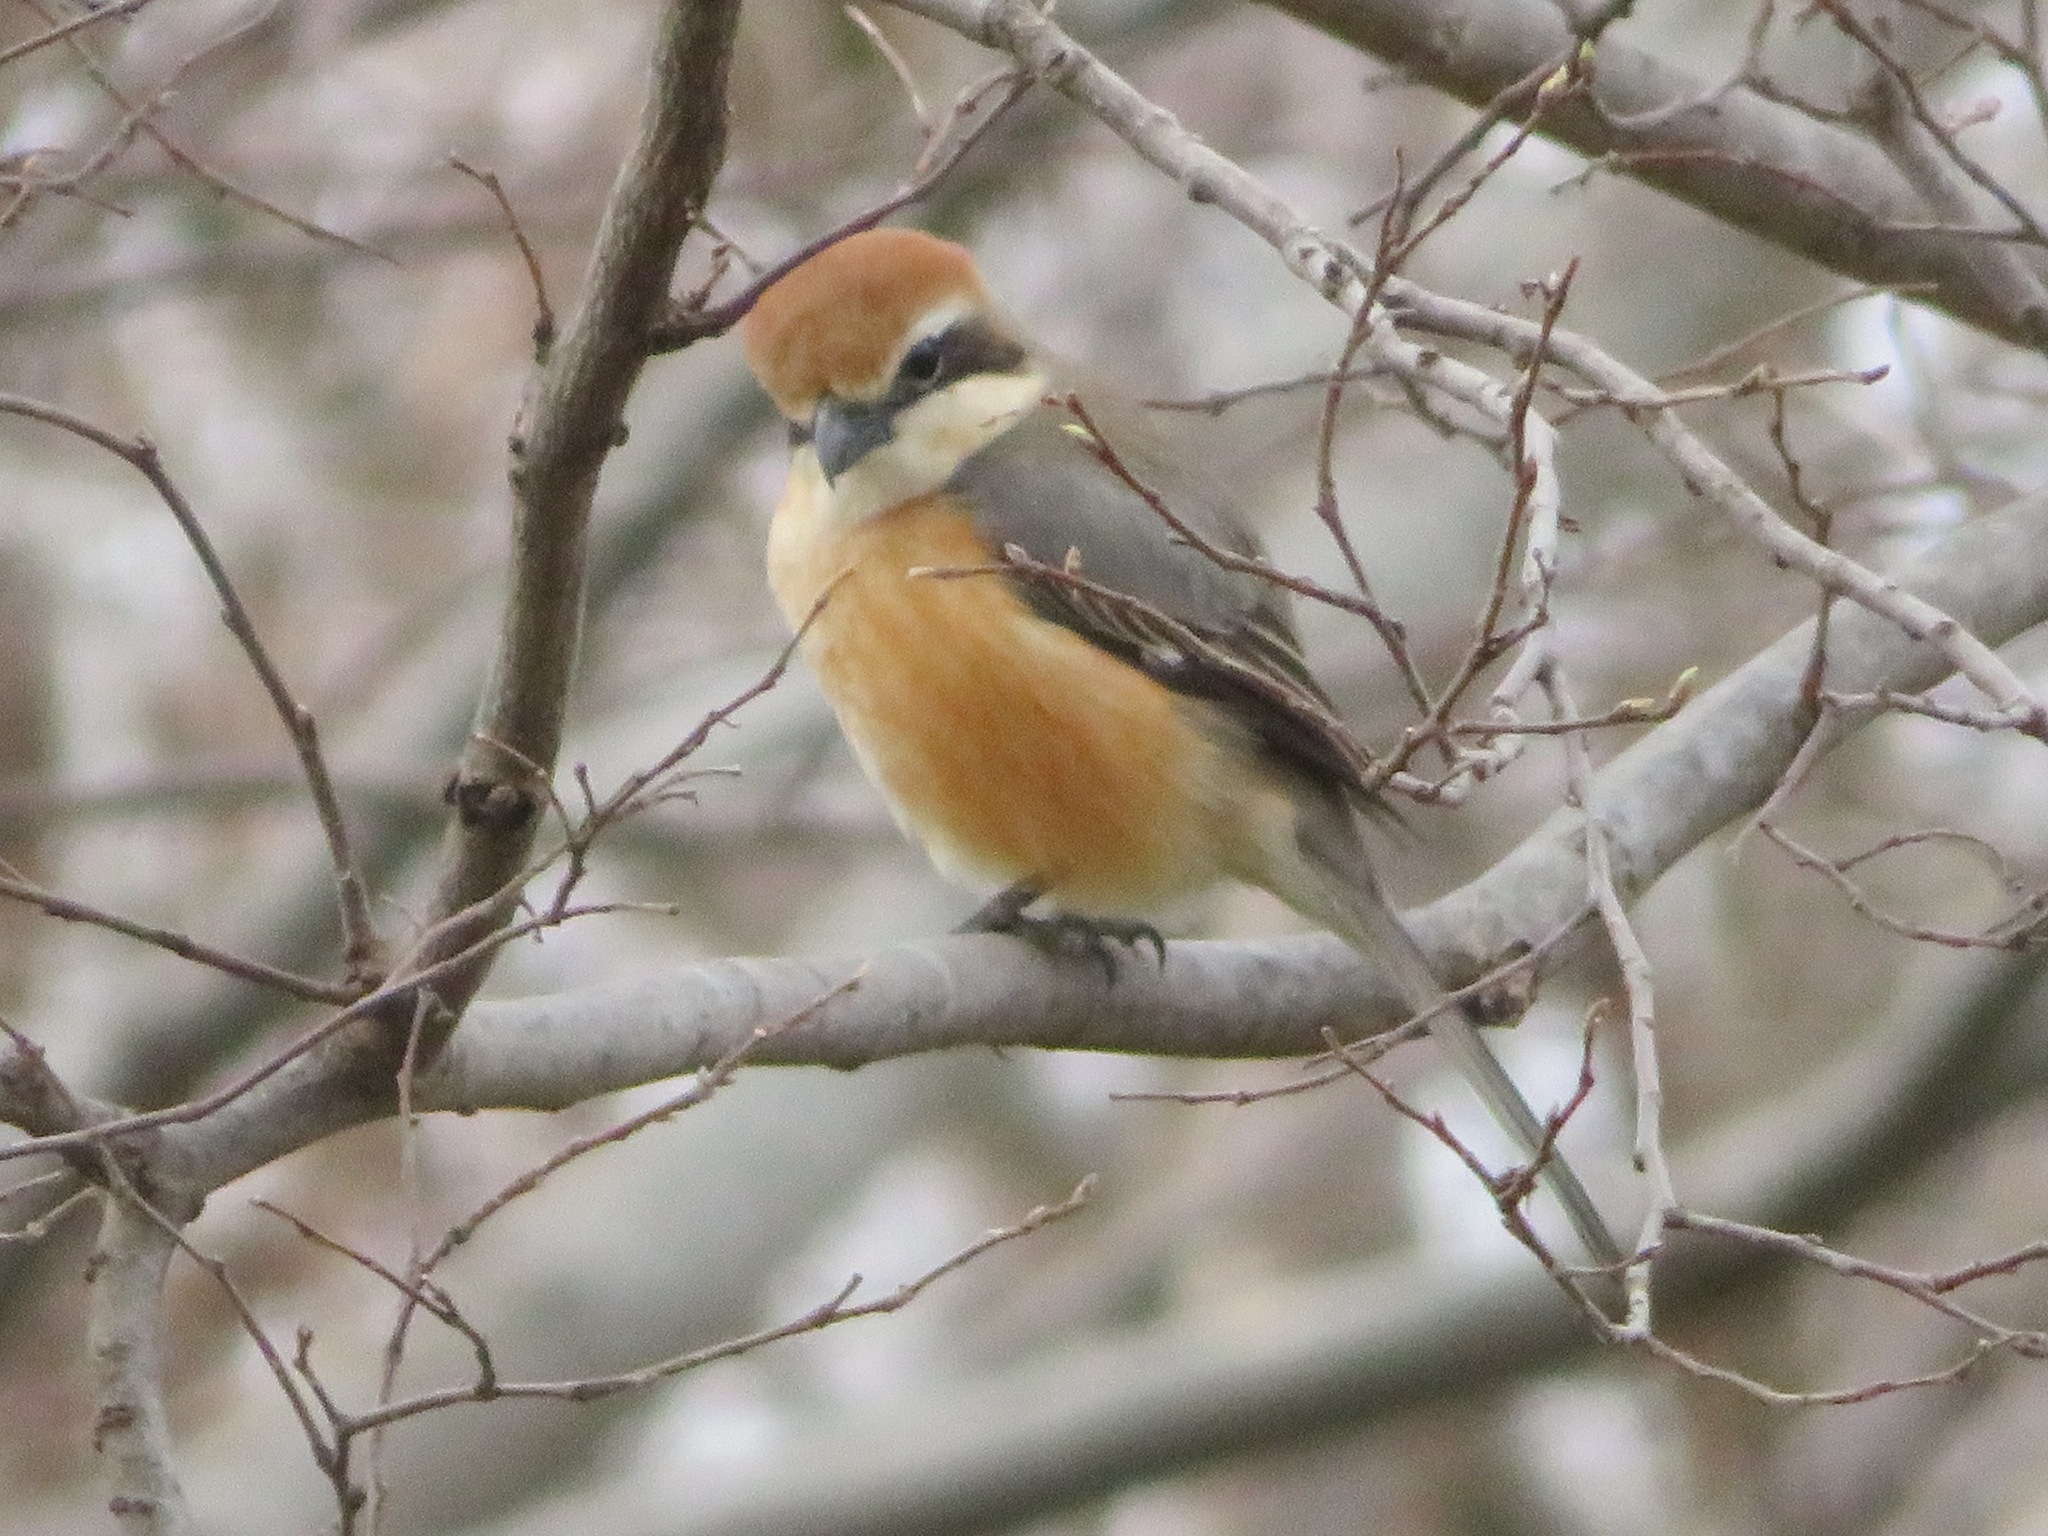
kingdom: Animalia
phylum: Chordata
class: Aves
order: Passeriformes
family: Laniidae
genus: Lanius
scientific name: Lanius bucephalus
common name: Bull-headed shrike
